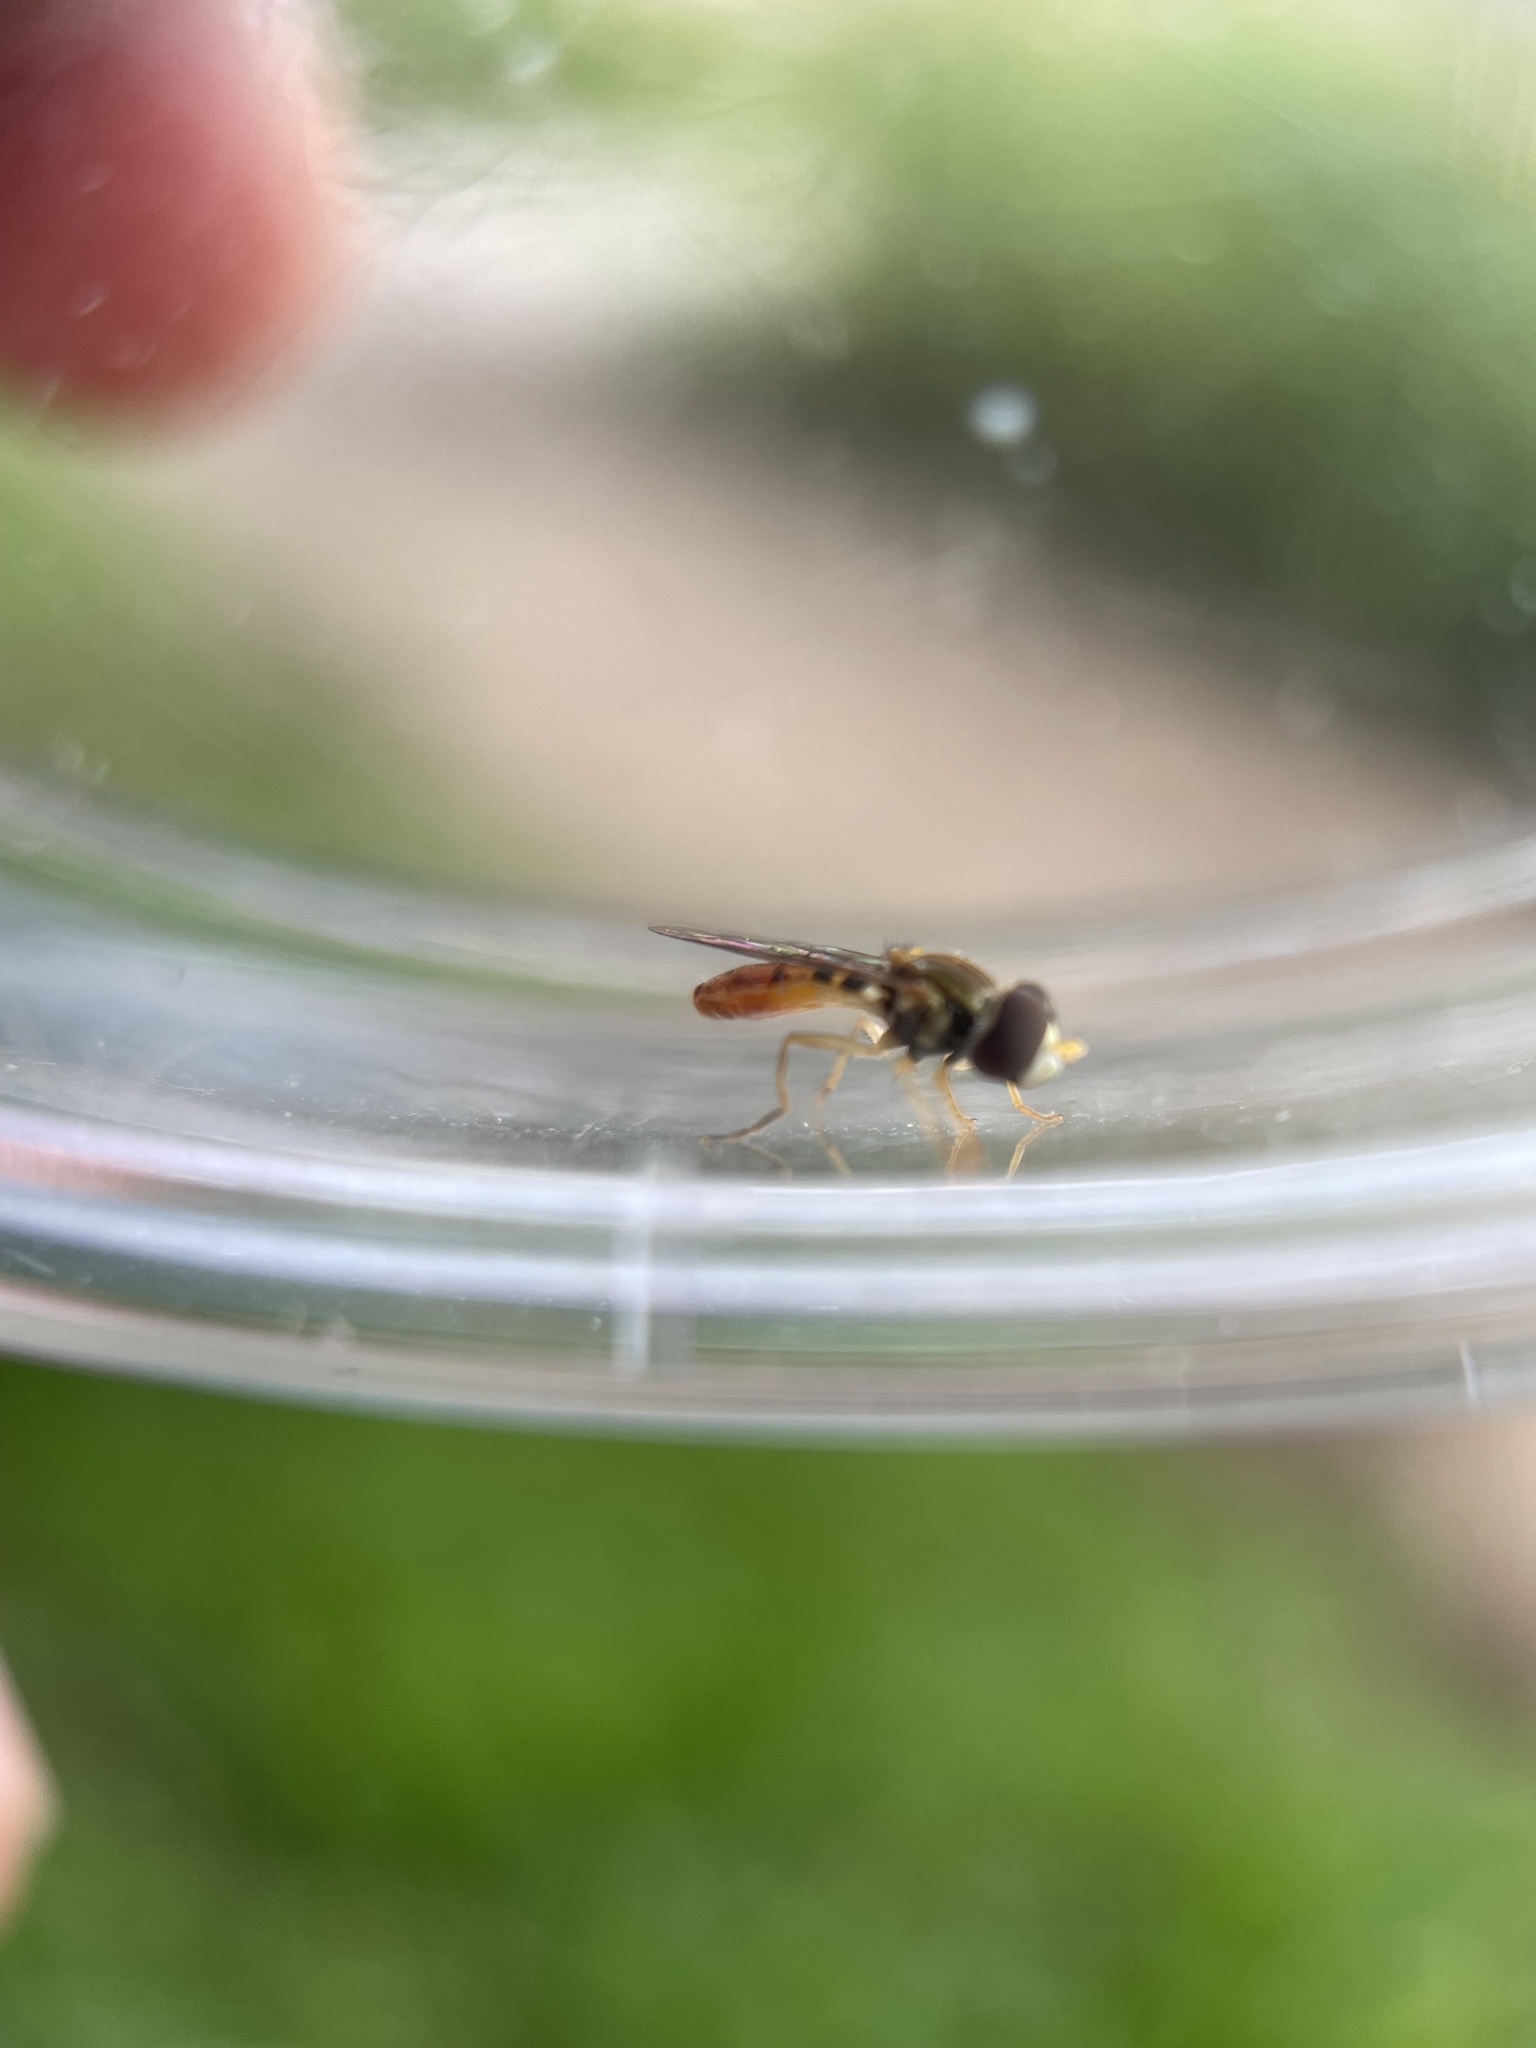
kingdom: Animalia
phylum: Arthropoda
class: Insecta
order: Diptera
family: Syrphidae
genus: Toxomerus
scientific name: Toxomerus marginatus
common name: Syrphid fly
